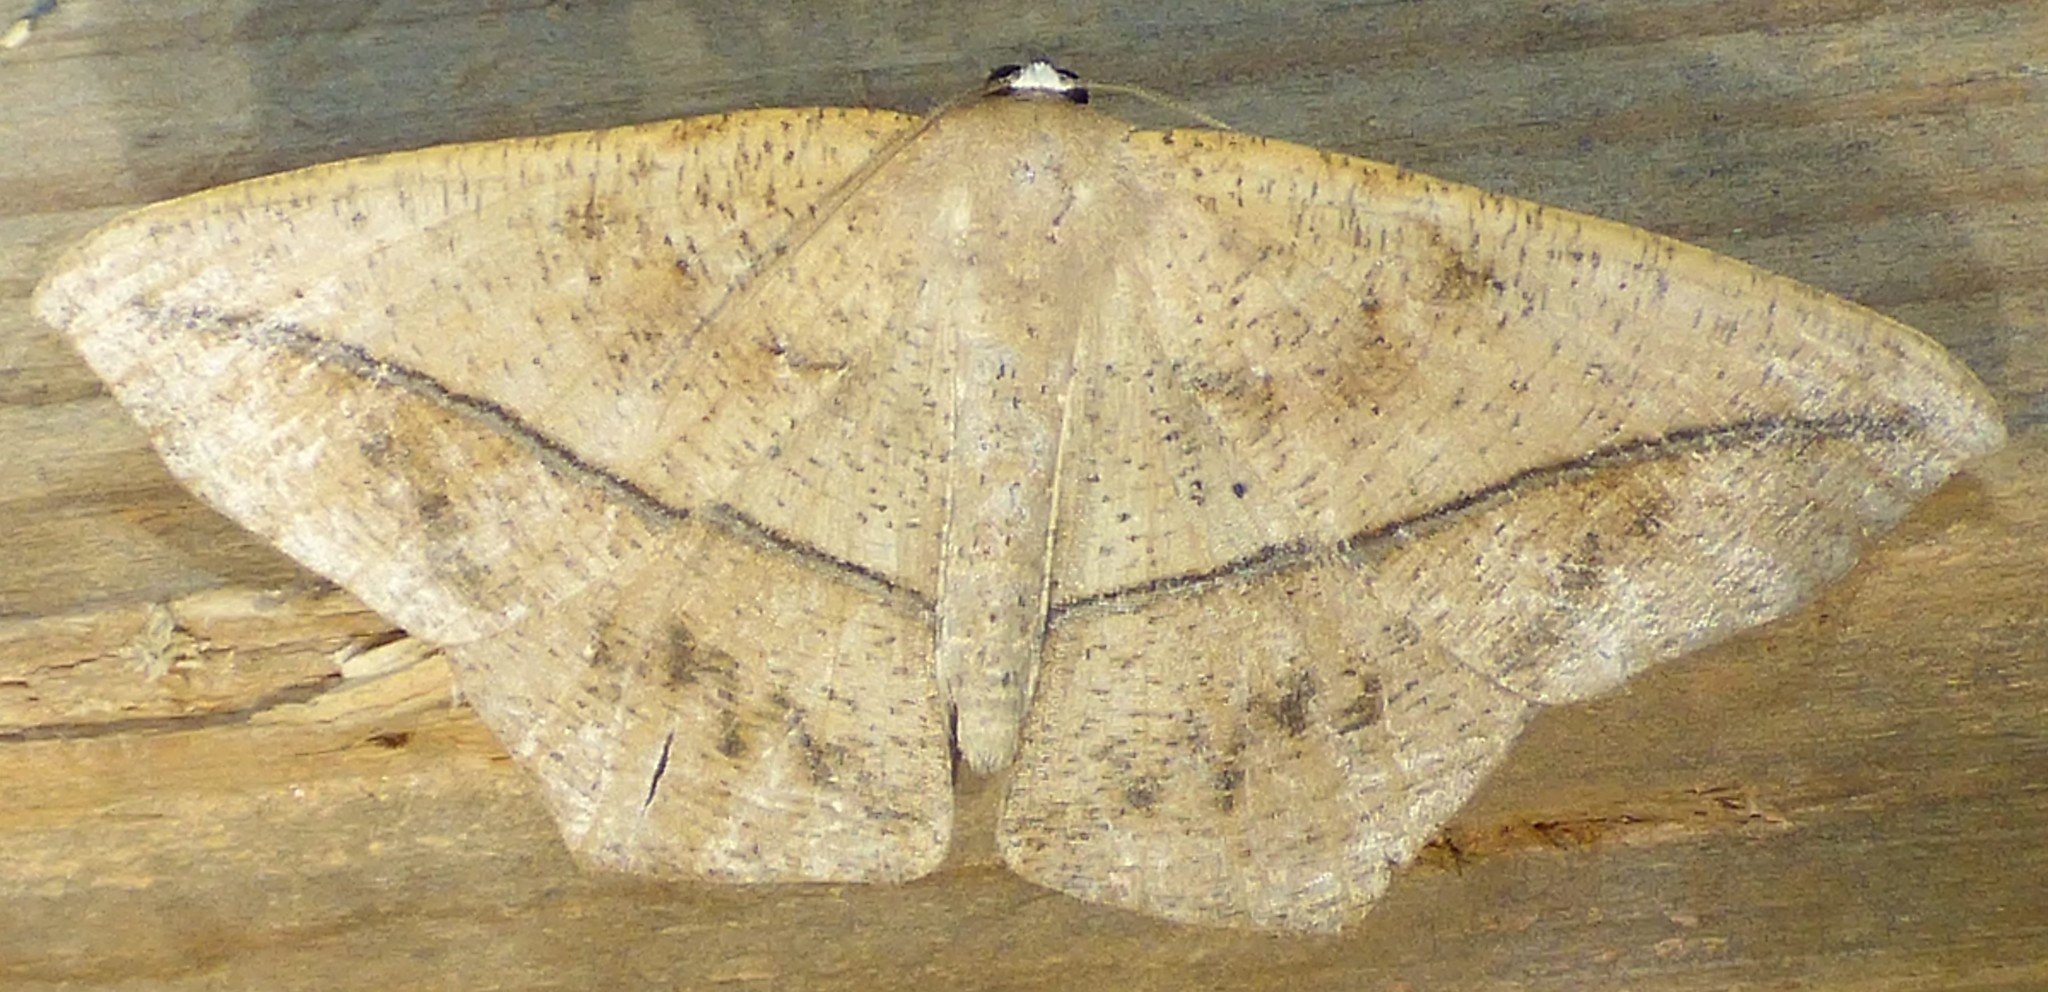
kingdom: Animalia
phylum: Arthropoda
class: Insecta
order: Lepidoptera
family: Geometridae
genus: Prochoerodes
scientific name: Prochoerodes lineola
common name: Large maple spanworm
